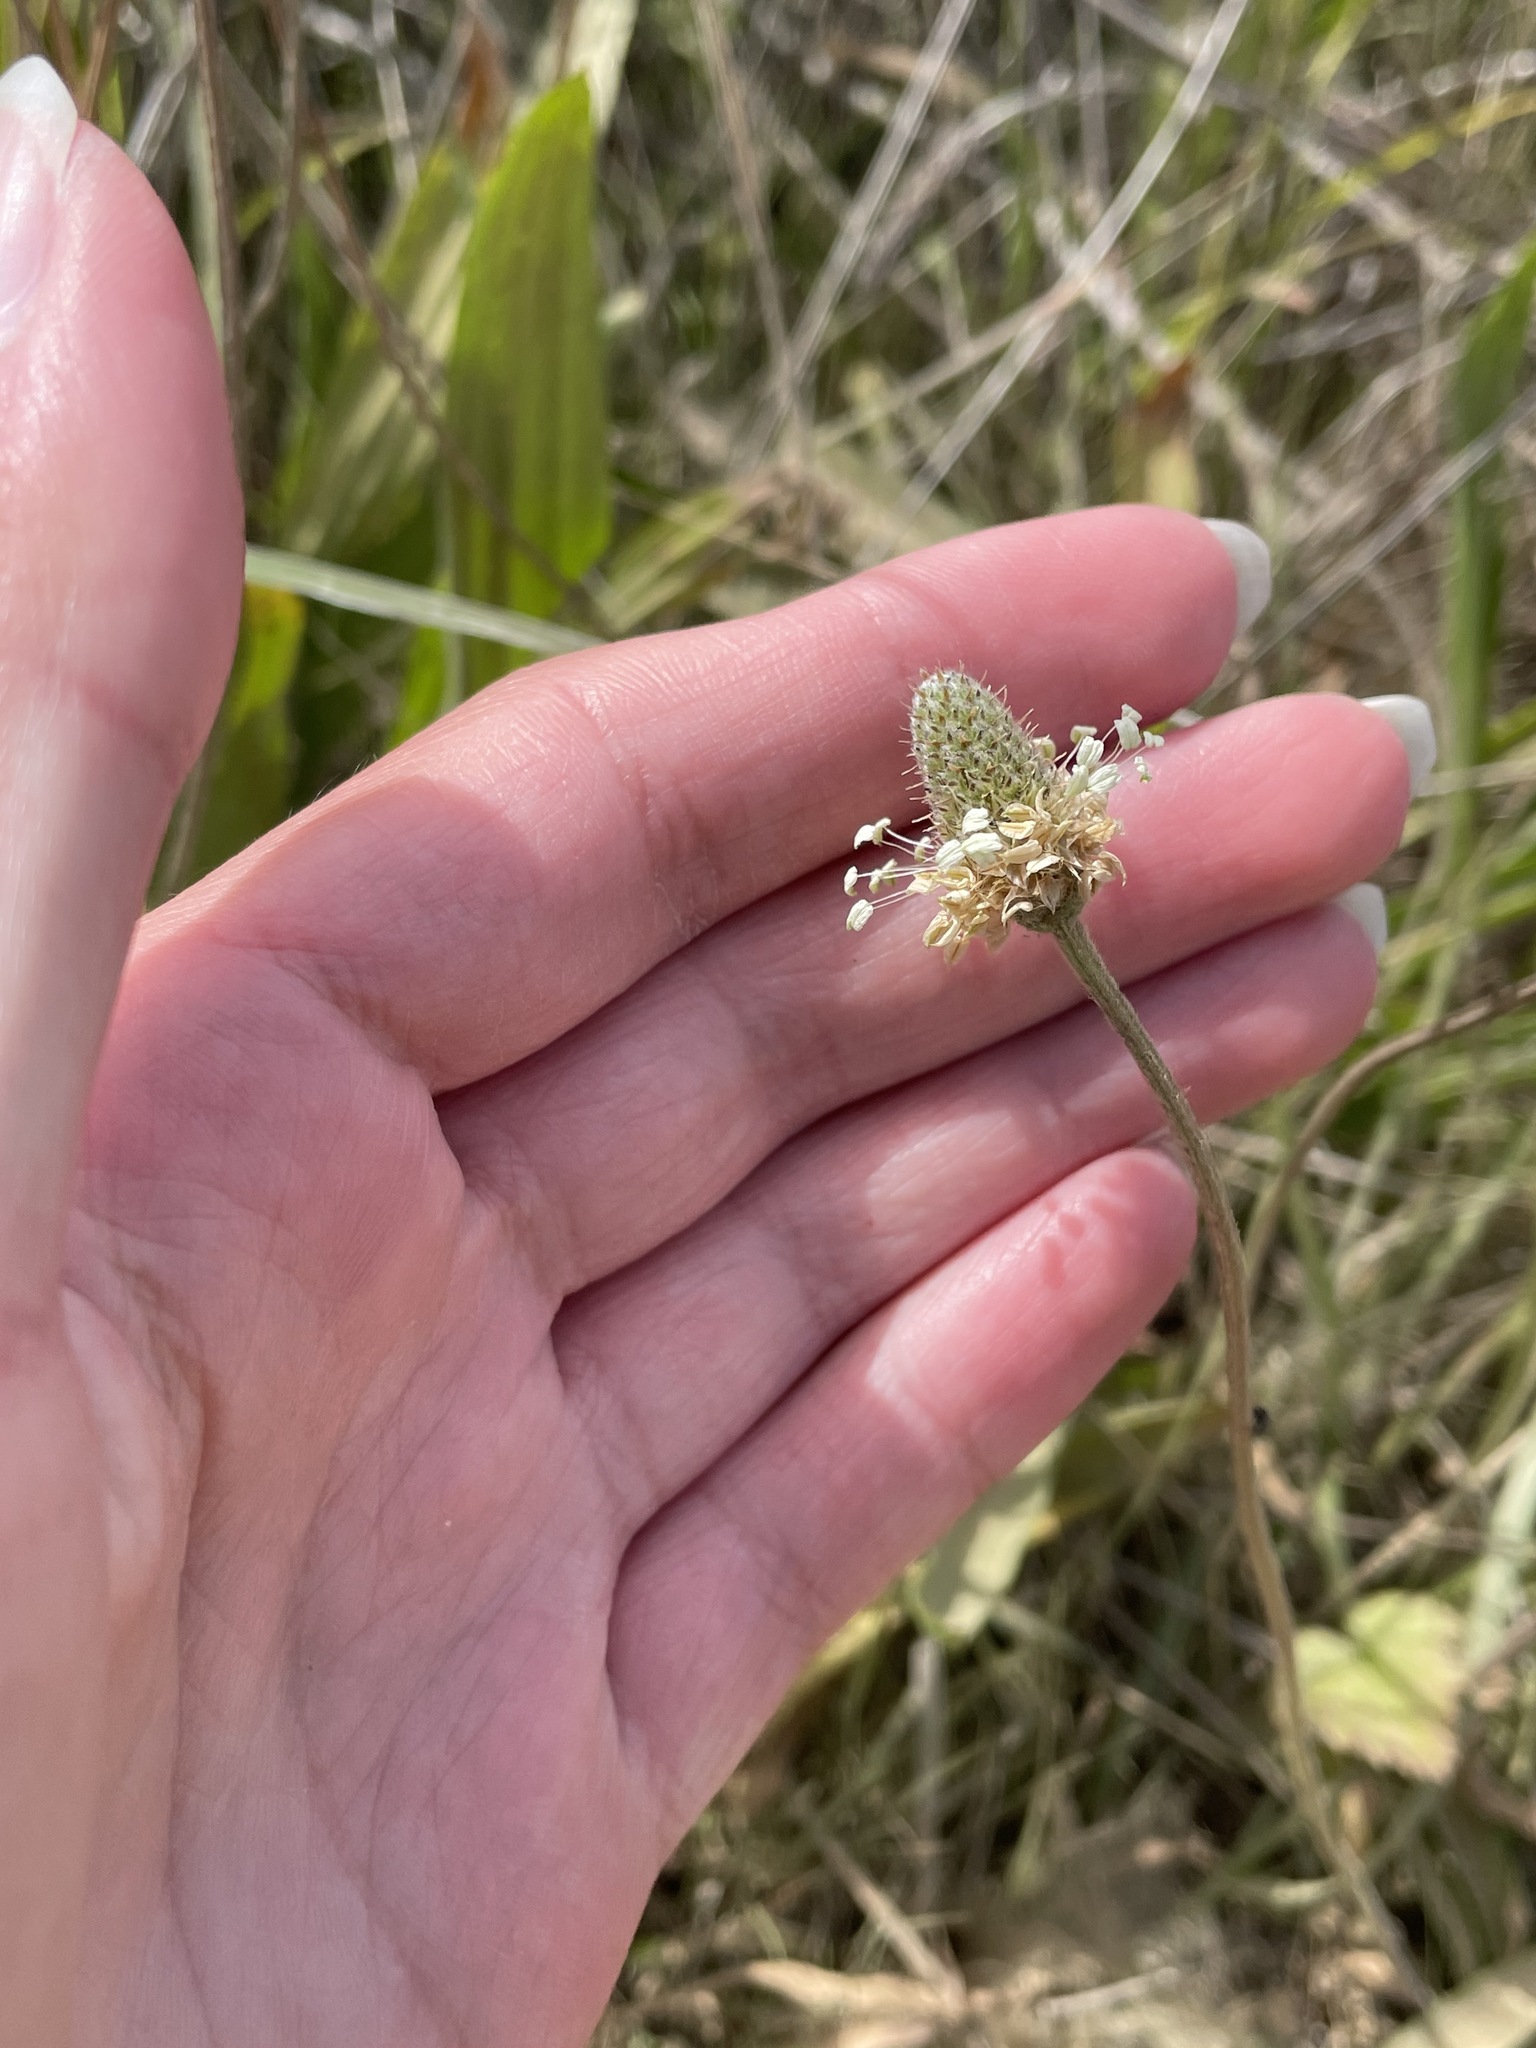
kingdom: Plantae
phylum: Tracheophyta
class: Magnoliopsida
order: Lamiales
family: Plantaginaceae
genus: Plantago
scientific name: Plantago lanceolata
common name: Ribwort plantain
